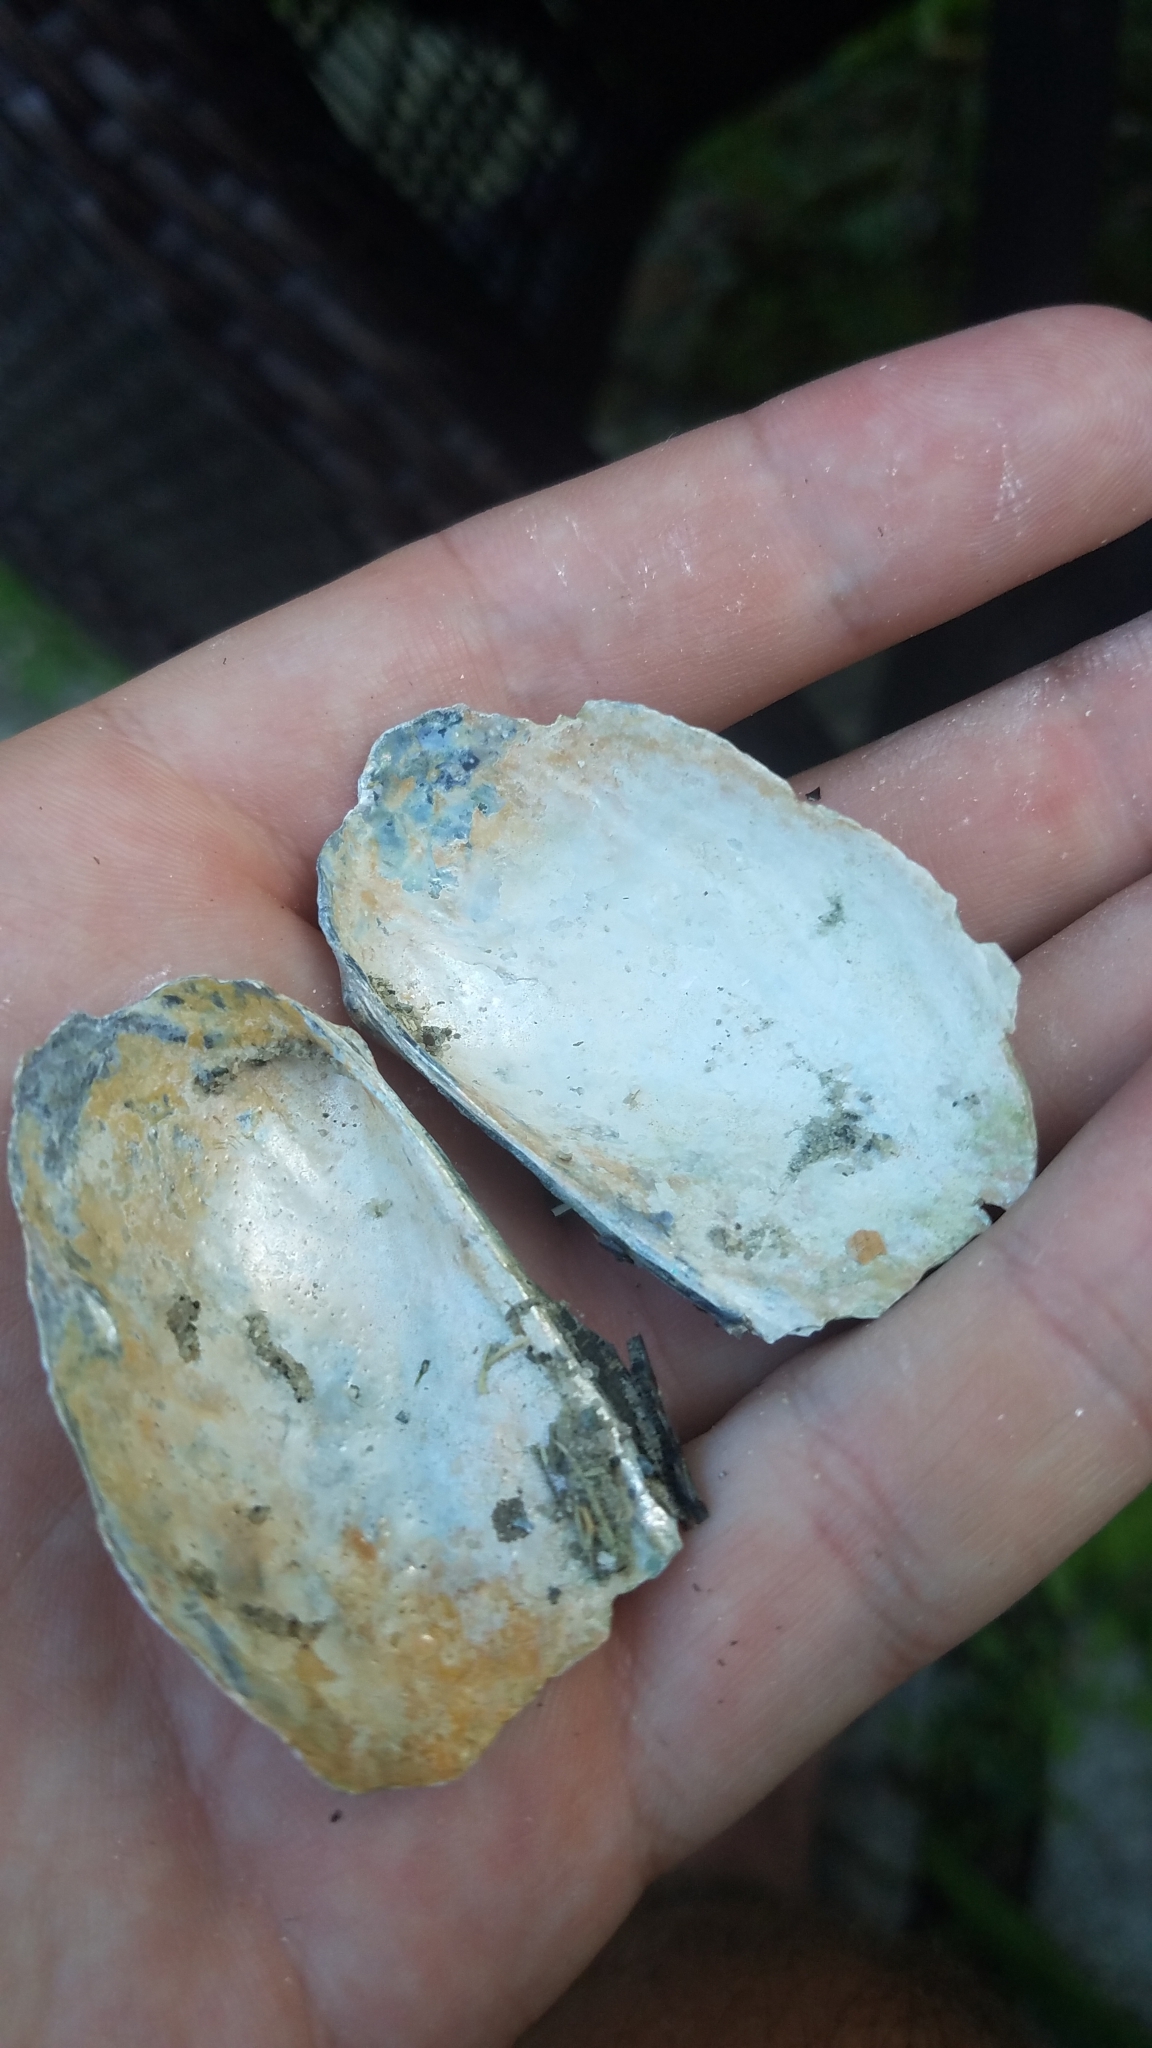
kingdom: Animalia
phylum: Mollusca
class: Bivalvia
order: Unionida
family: Unionidae
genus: Pyganodon
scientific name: Pyganodon grandis
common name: Giant floater
